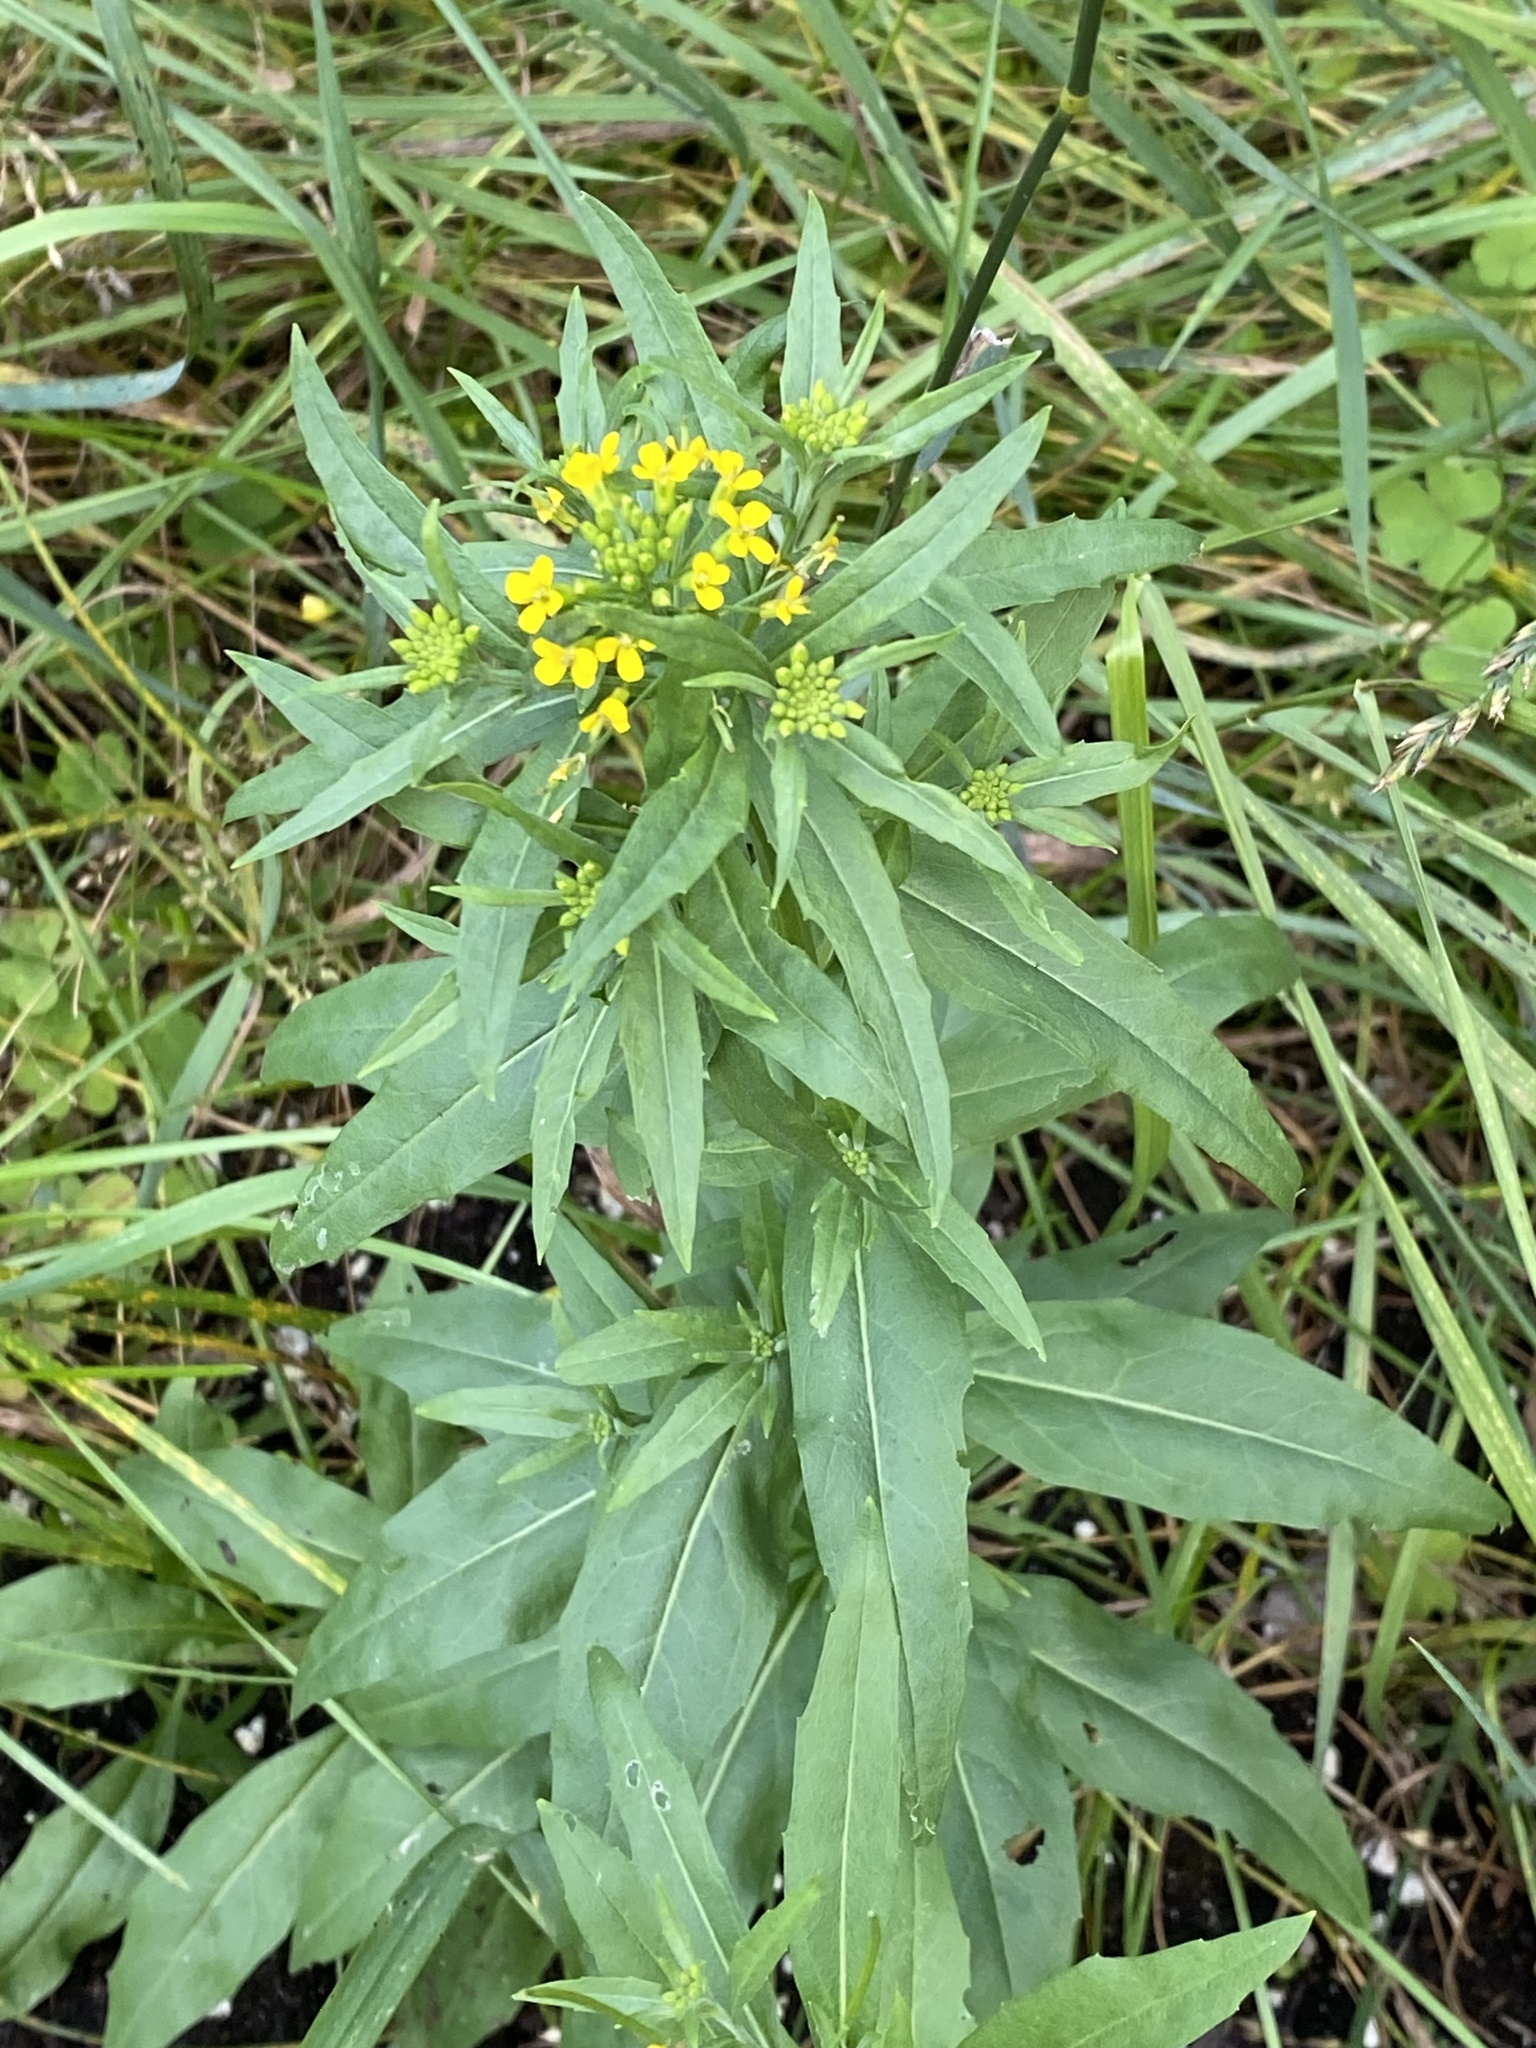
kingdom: Plantae
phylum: Tracheophyta
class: Magnoliopsida
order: Brassicales
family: Brassicaceae
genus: Erysimum
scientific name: Erysimum cheiranthoides
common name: Treacle mustard
